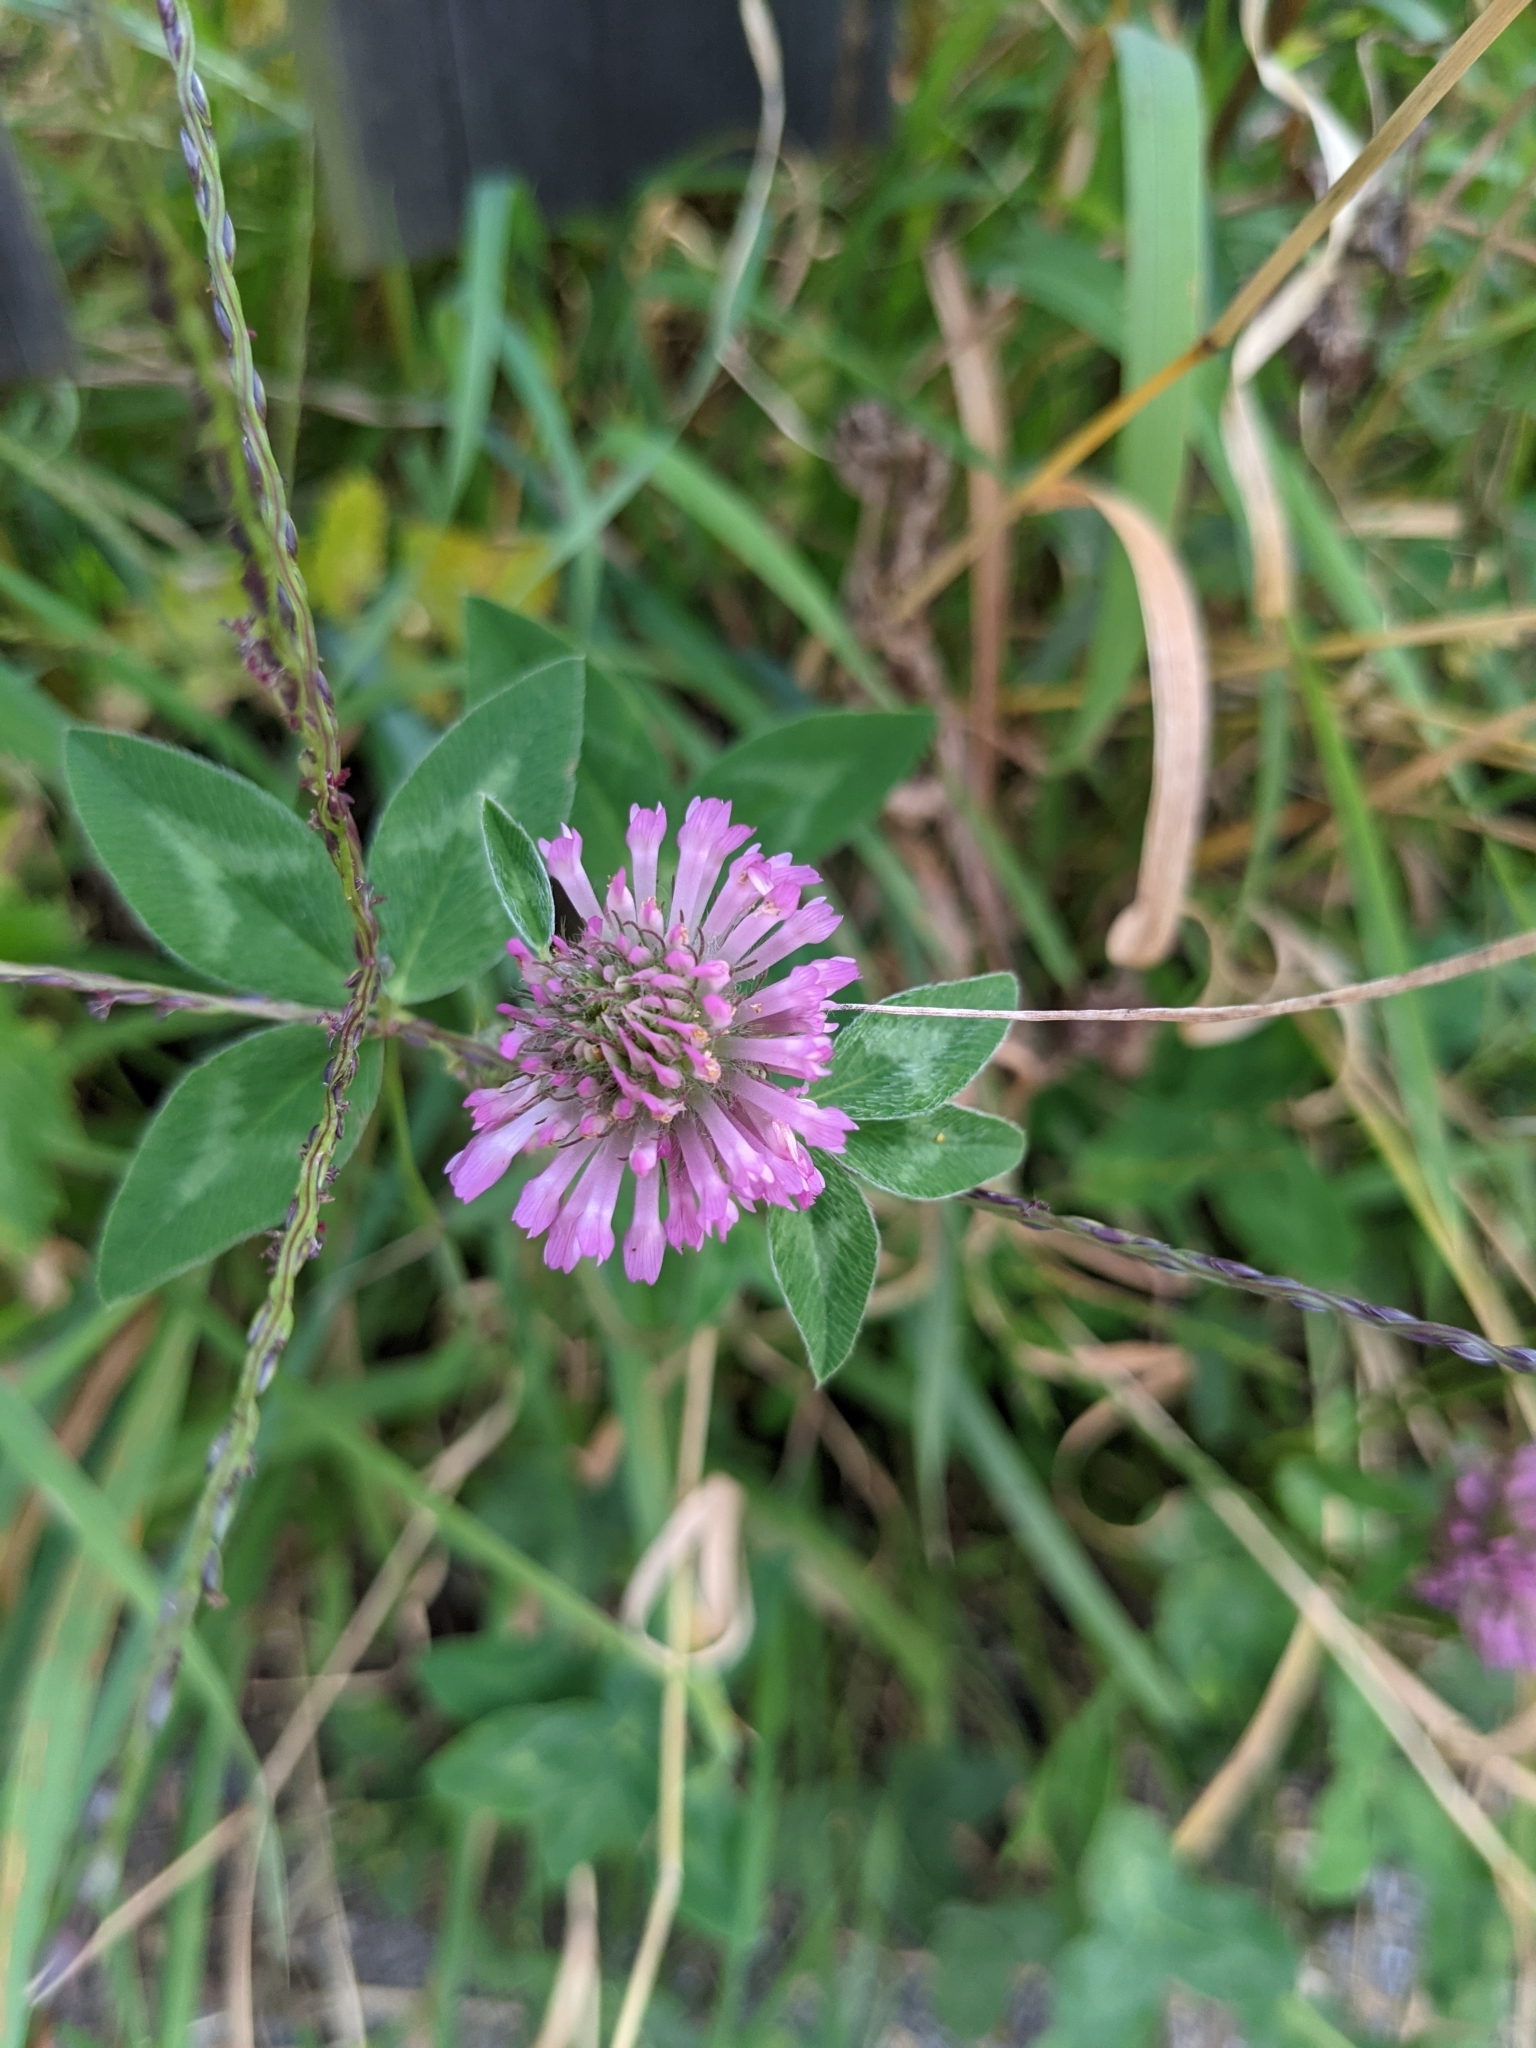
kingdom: Plantae
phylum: Tracheophyta
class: Magnoliopsida
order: Fabales
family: Fabaceae
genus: Trifolium
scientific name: Trifolium pratense
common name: Red clover
